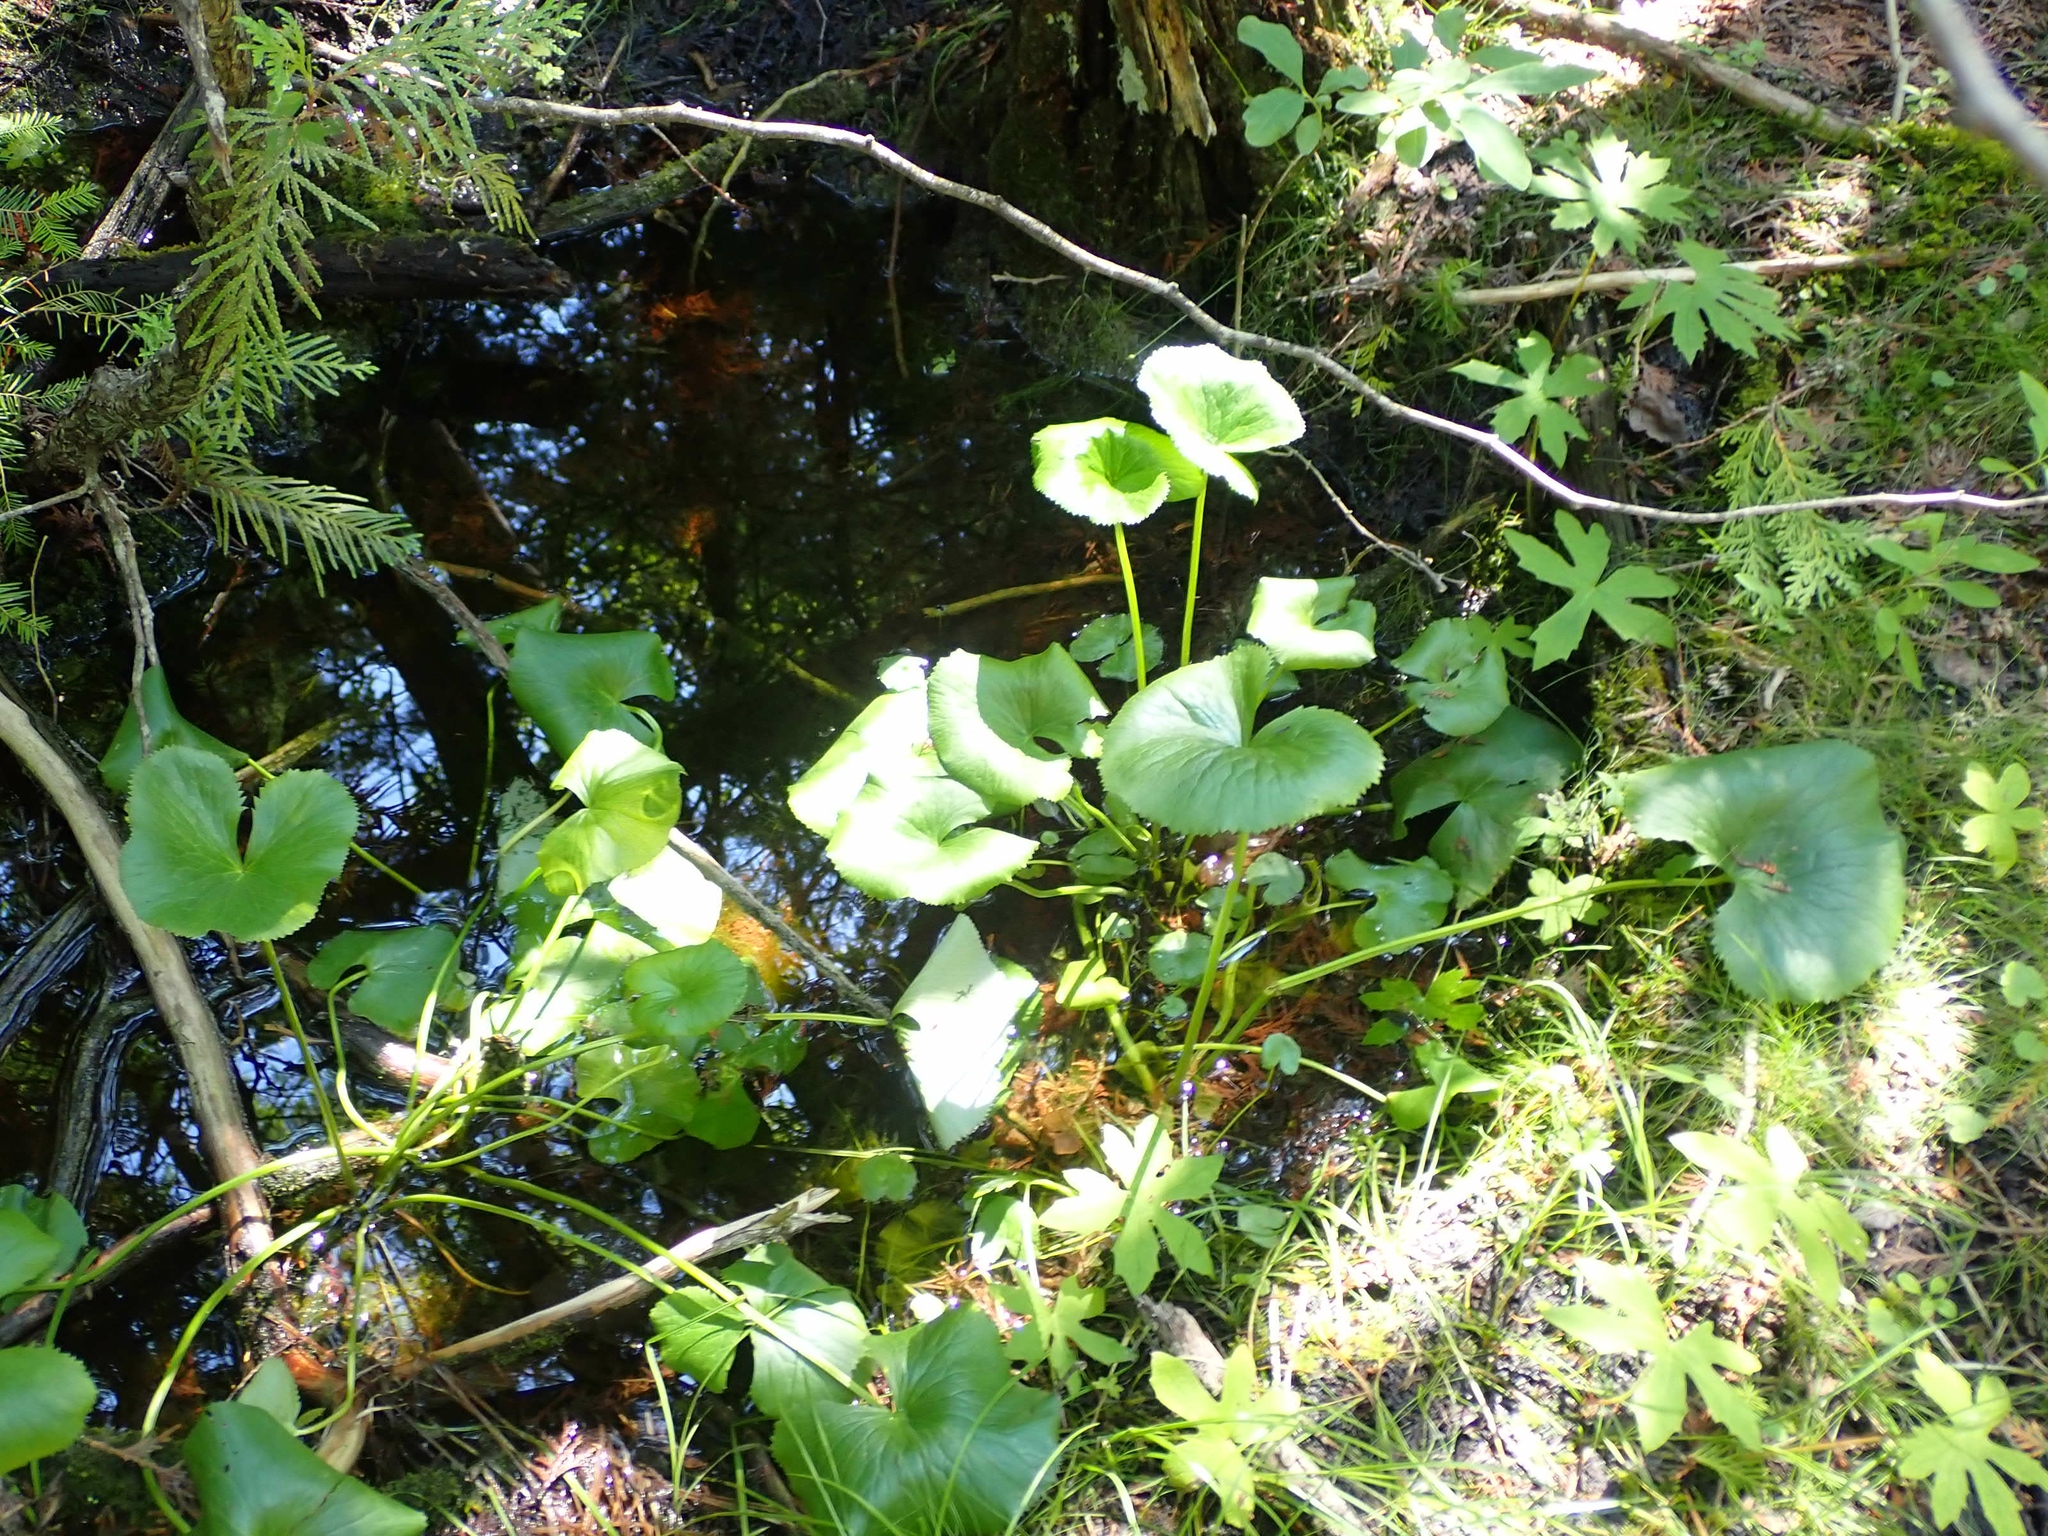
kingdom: Plantae
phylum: Tracheophyta
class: Magnoliopsida
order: Ranunculales
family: Ranunculaceae
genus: Caltha
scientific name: Caltha palustris
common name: Marsh marigold
